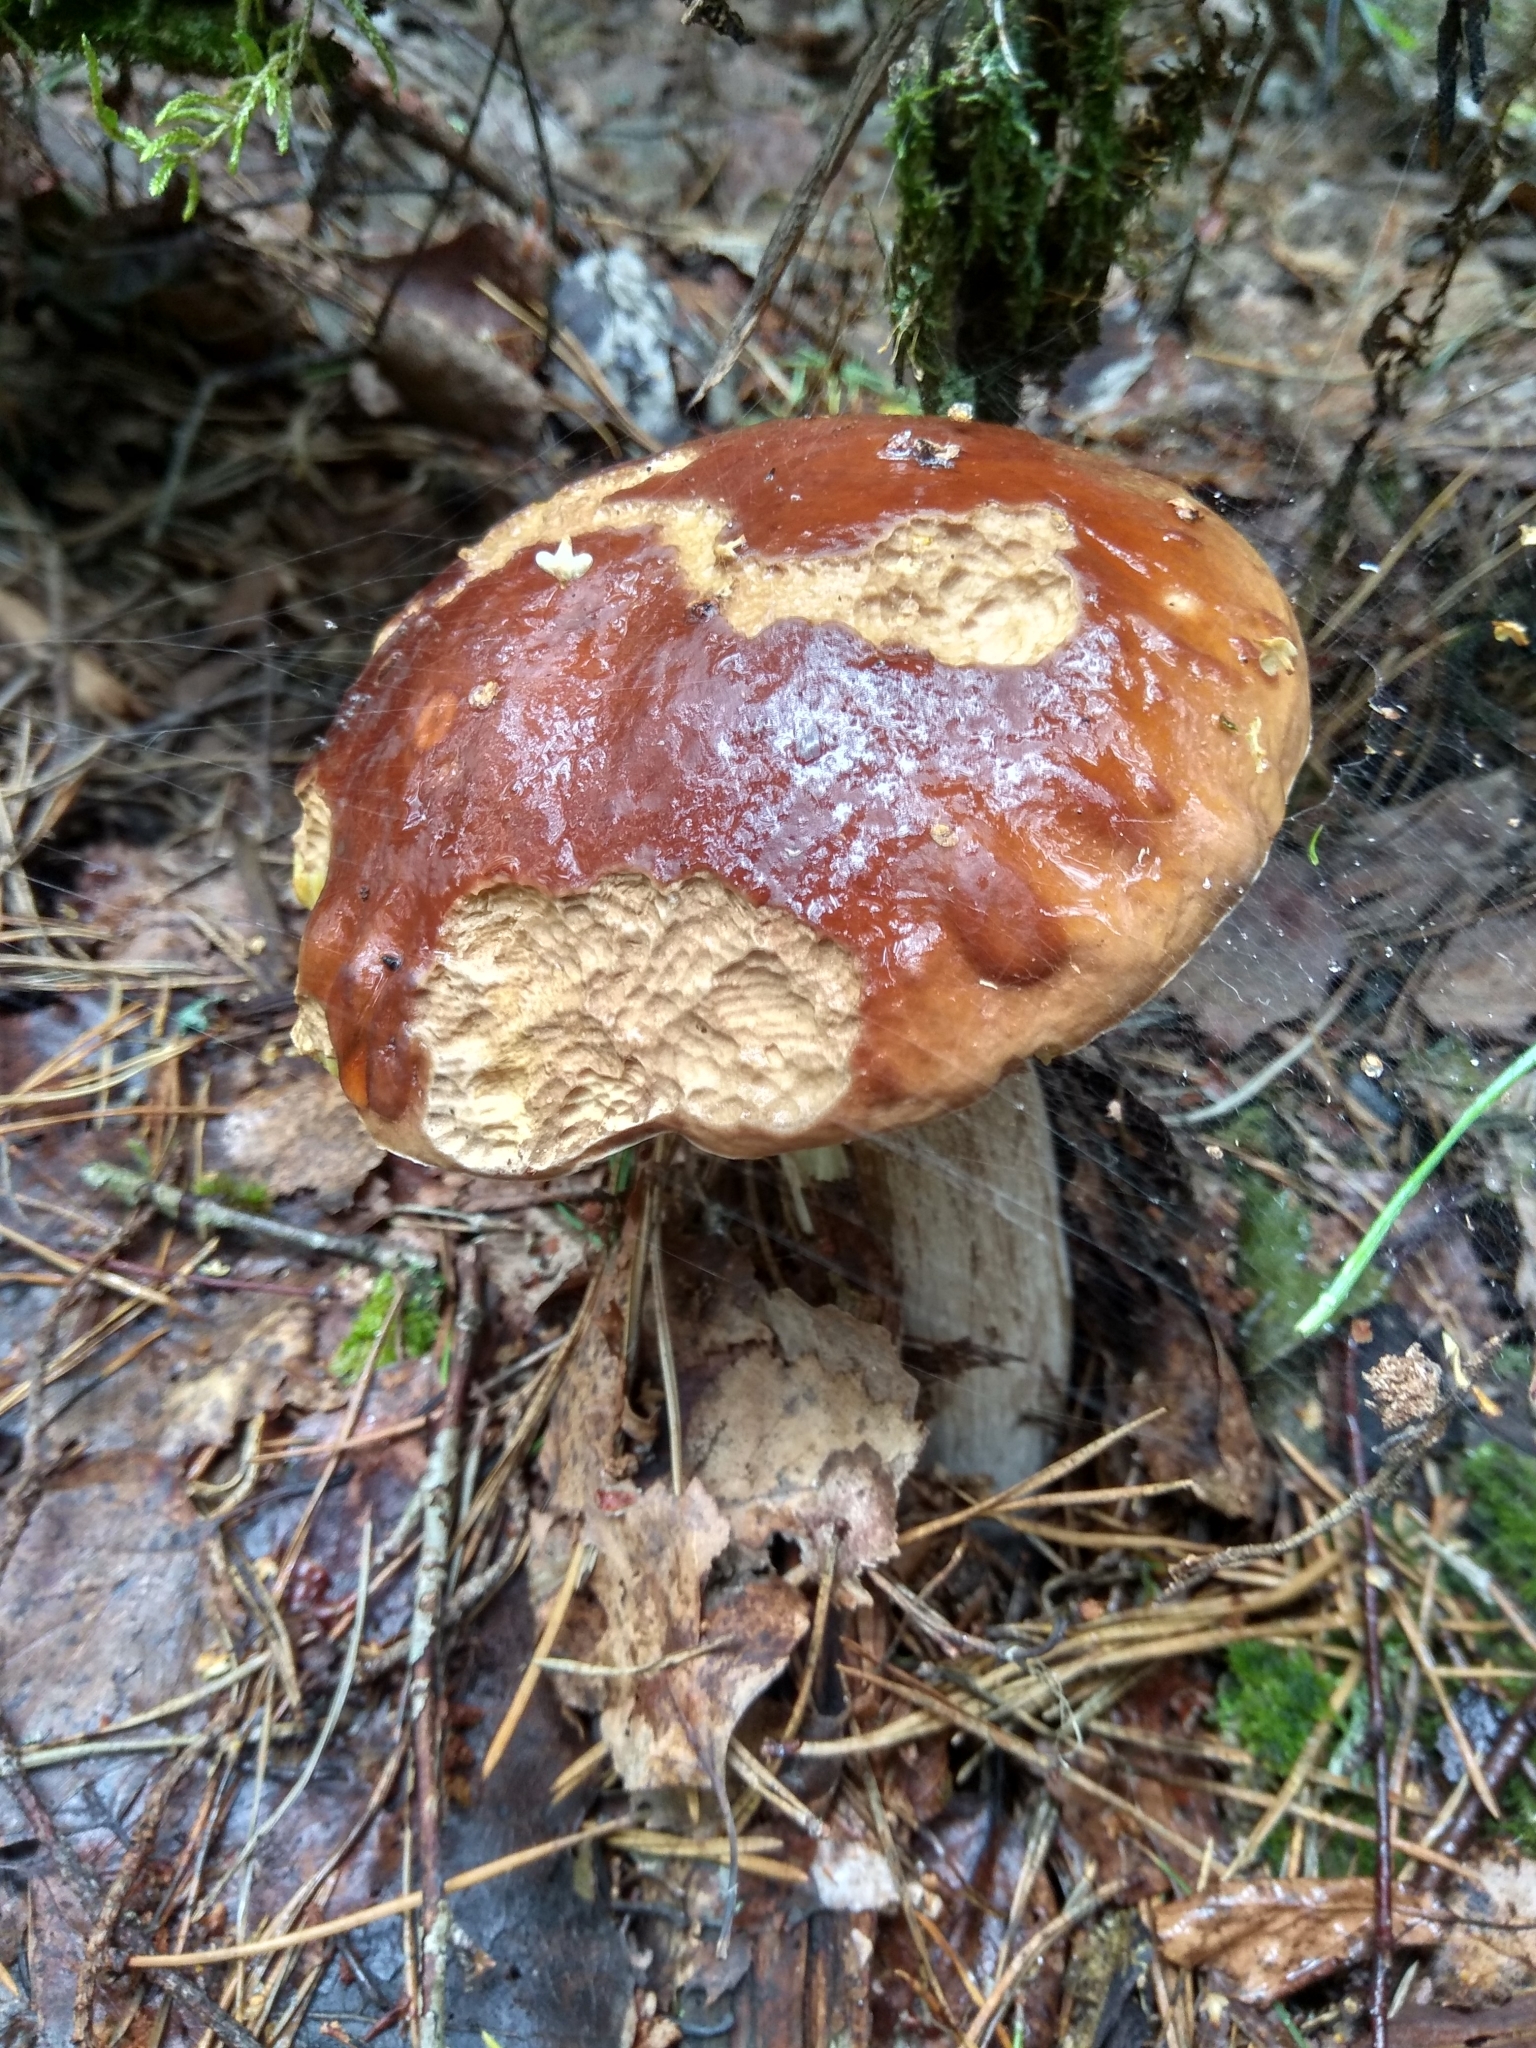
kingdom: Fungi
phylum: Basidiomycota
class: Agaricomycetes
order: Boletales
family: Boletaceae
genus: Boletus
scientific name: Boletus edulis
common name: Cep
